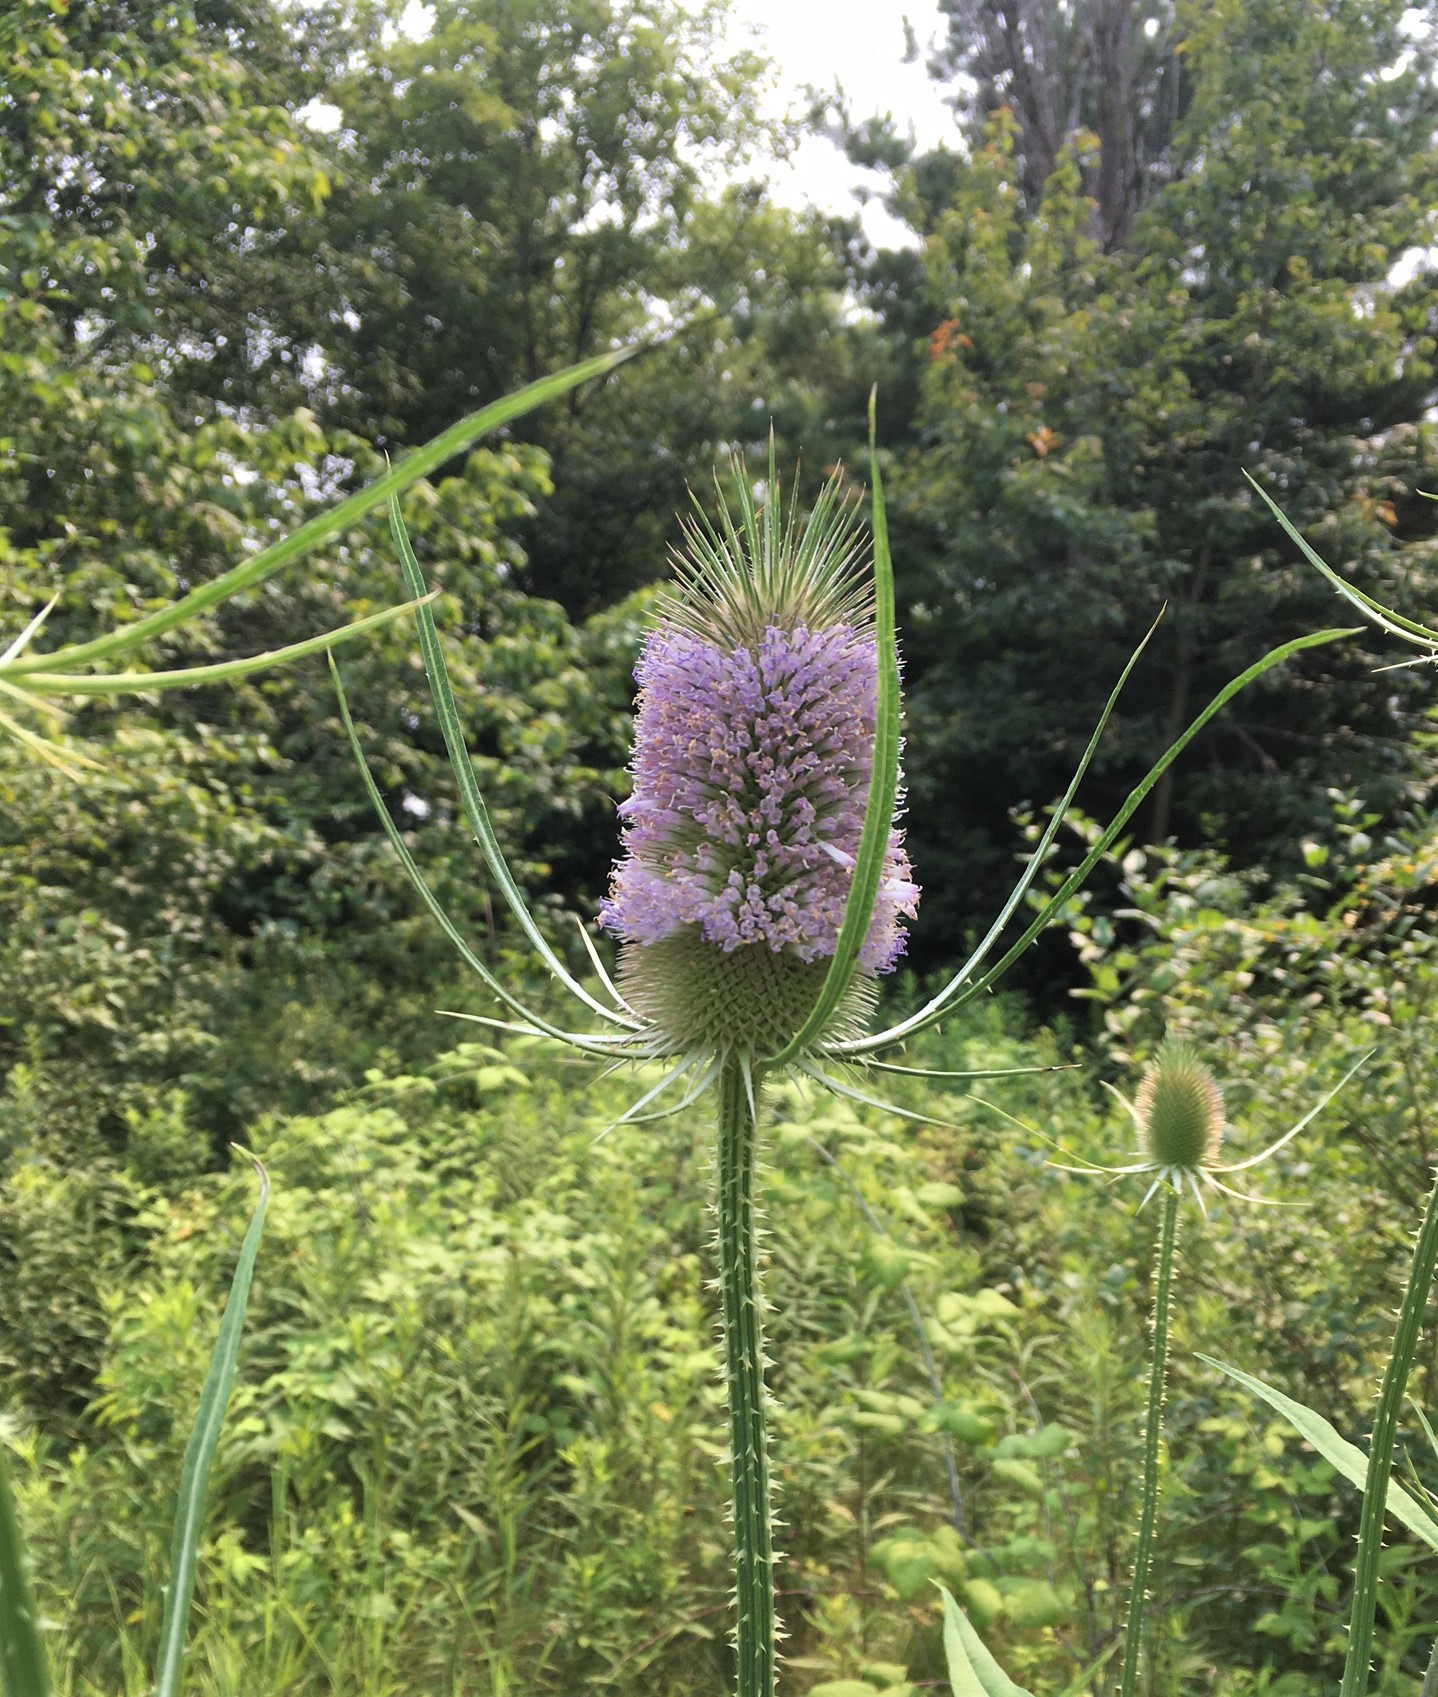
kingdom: Plantae
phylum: Tracheophyta
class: Magnoliopsida
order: Dipsacales
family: Caprifoliaceae
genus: Dipsacus
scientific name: Dipsacus fullonum
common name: Teasel
